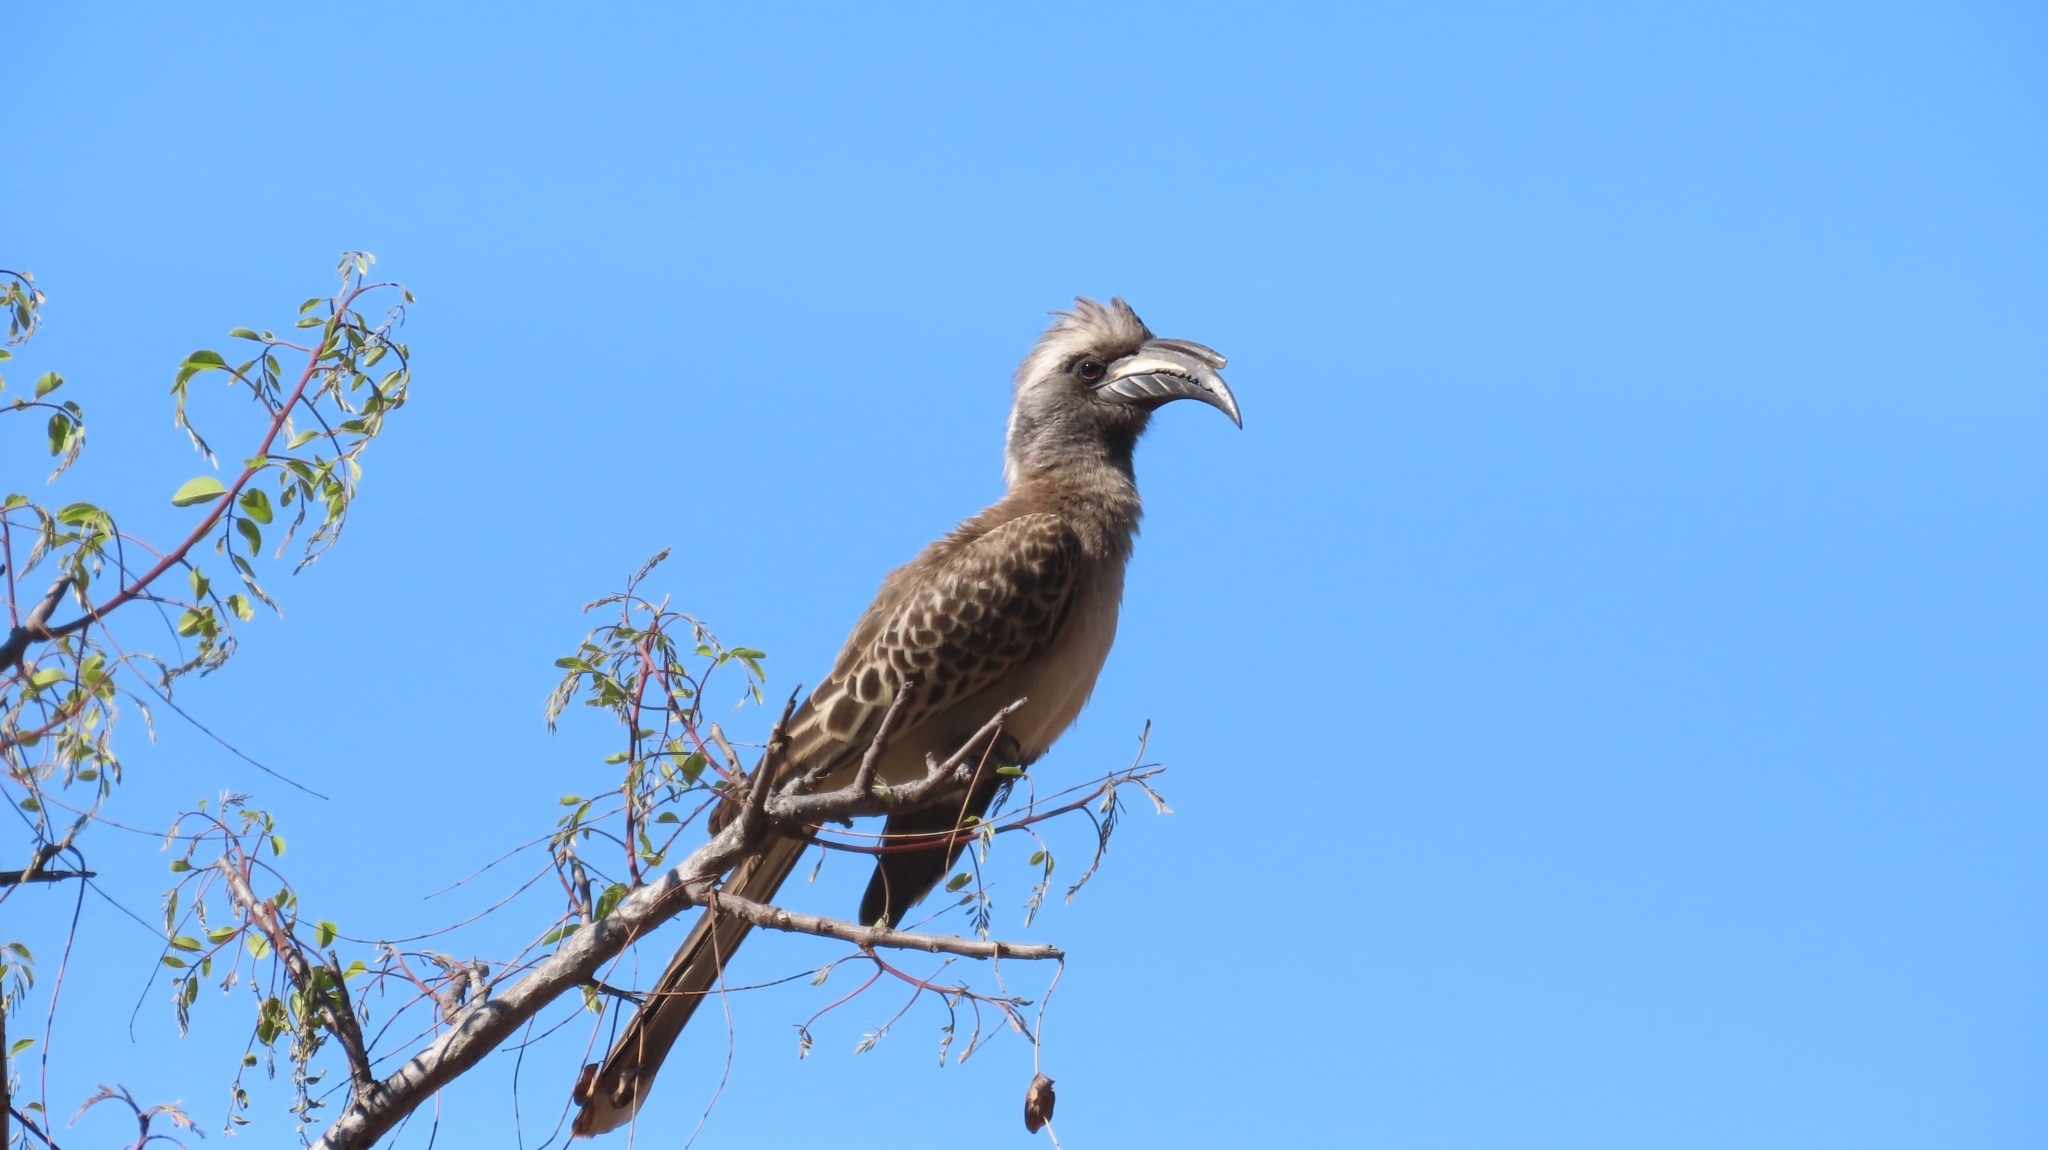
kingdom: Animalia
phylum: Chordata
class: Aves
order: Bucerotiformes
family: Bucerotidae
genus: Lophoceros
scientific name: Lophoceros nasutus
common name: African grey hornbill
